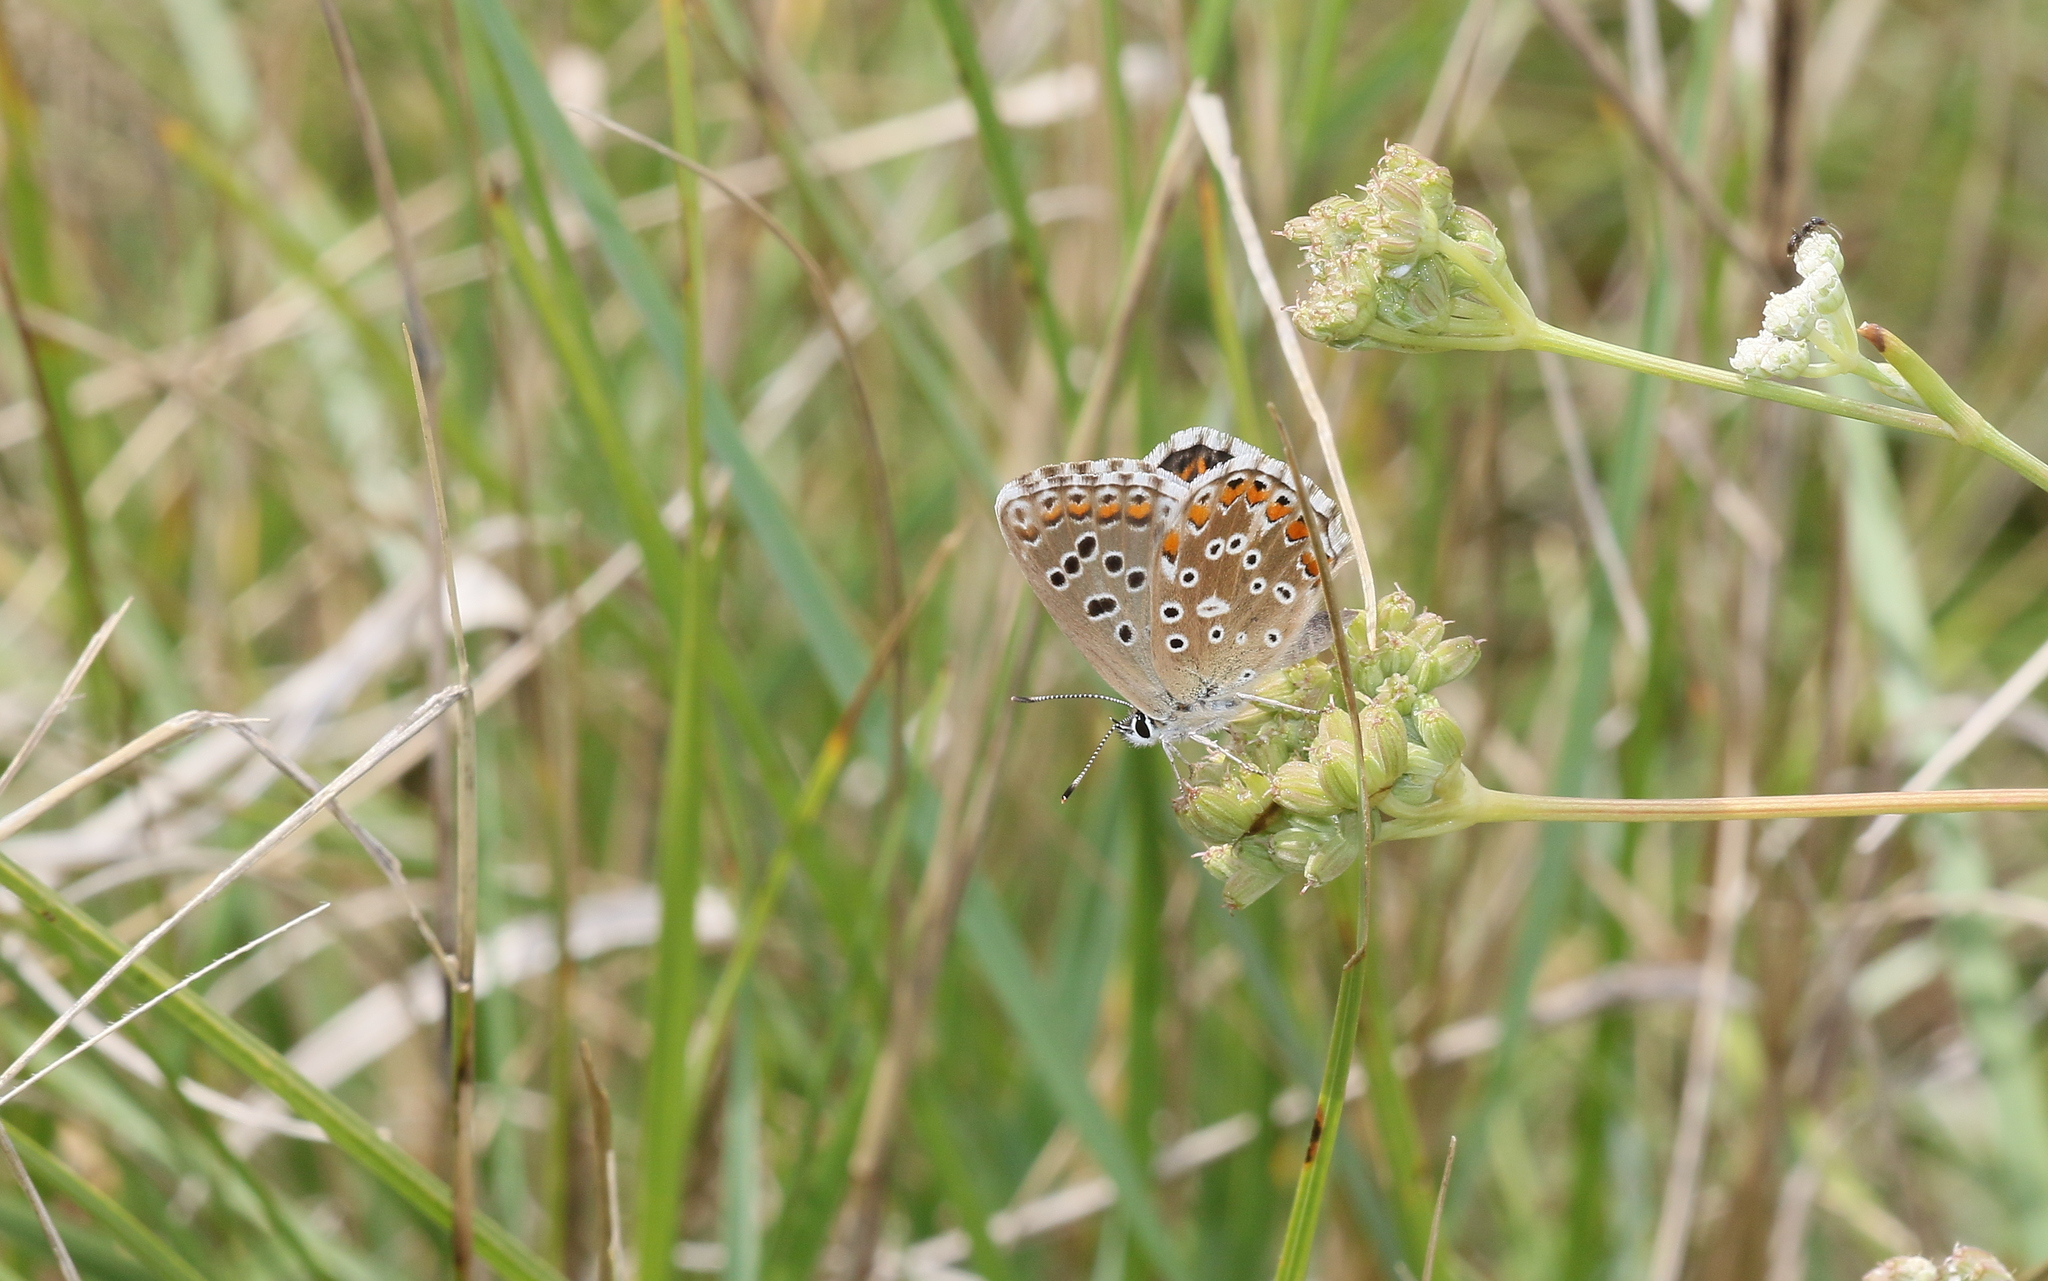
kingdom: Animalia
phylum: Arthropoda
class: Insecta
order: Lepidoptera
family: Lycaenidae
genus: Lysandra
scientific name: Lysandra bellargus
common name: Adonis blue
